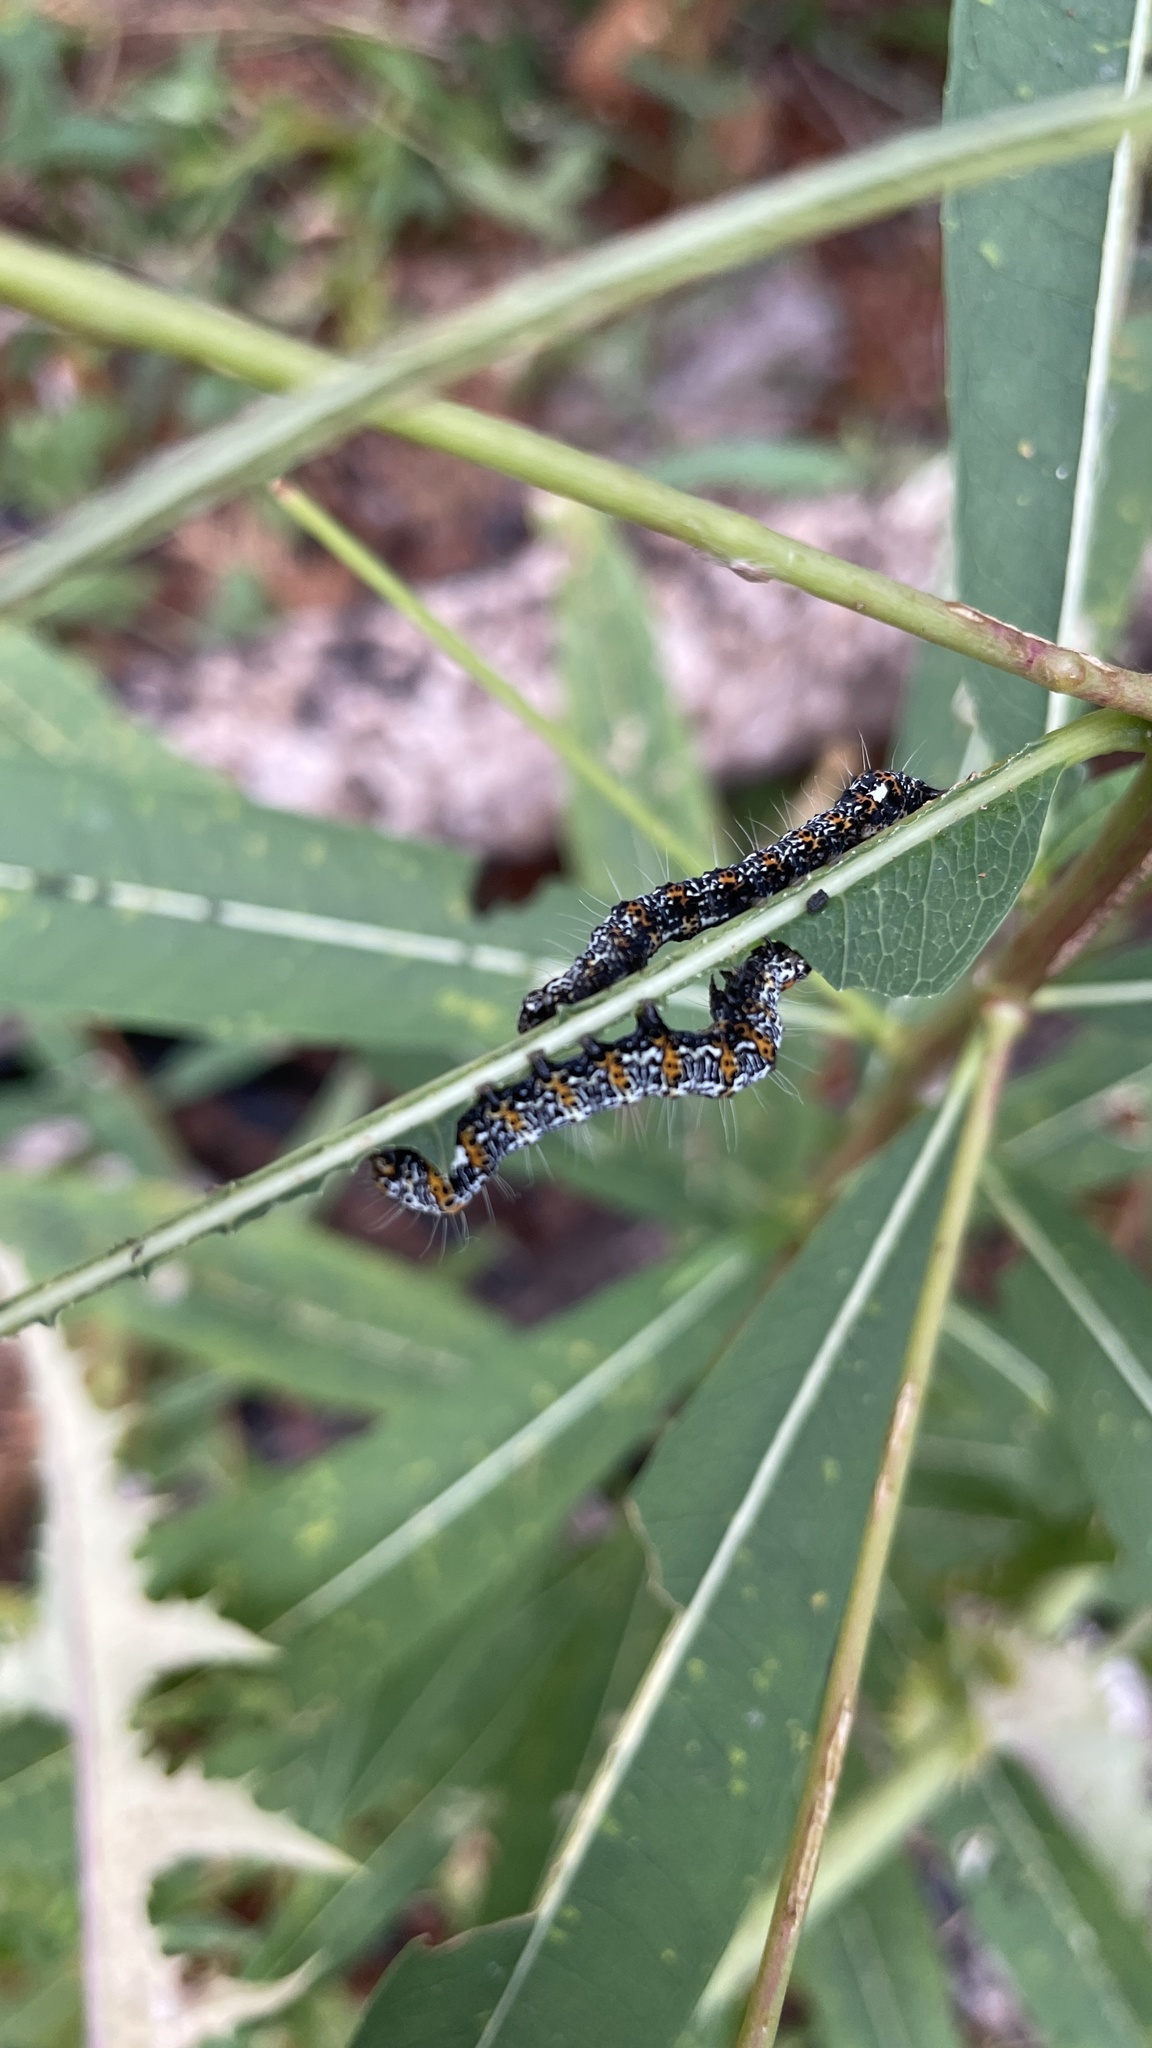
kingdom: Animalia
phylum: Arthropoda
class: Insecta
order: Lepidoptera
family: Noctuidae
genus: Alypia
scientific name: Alypia langtonii
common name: Fireweed caterpillar
